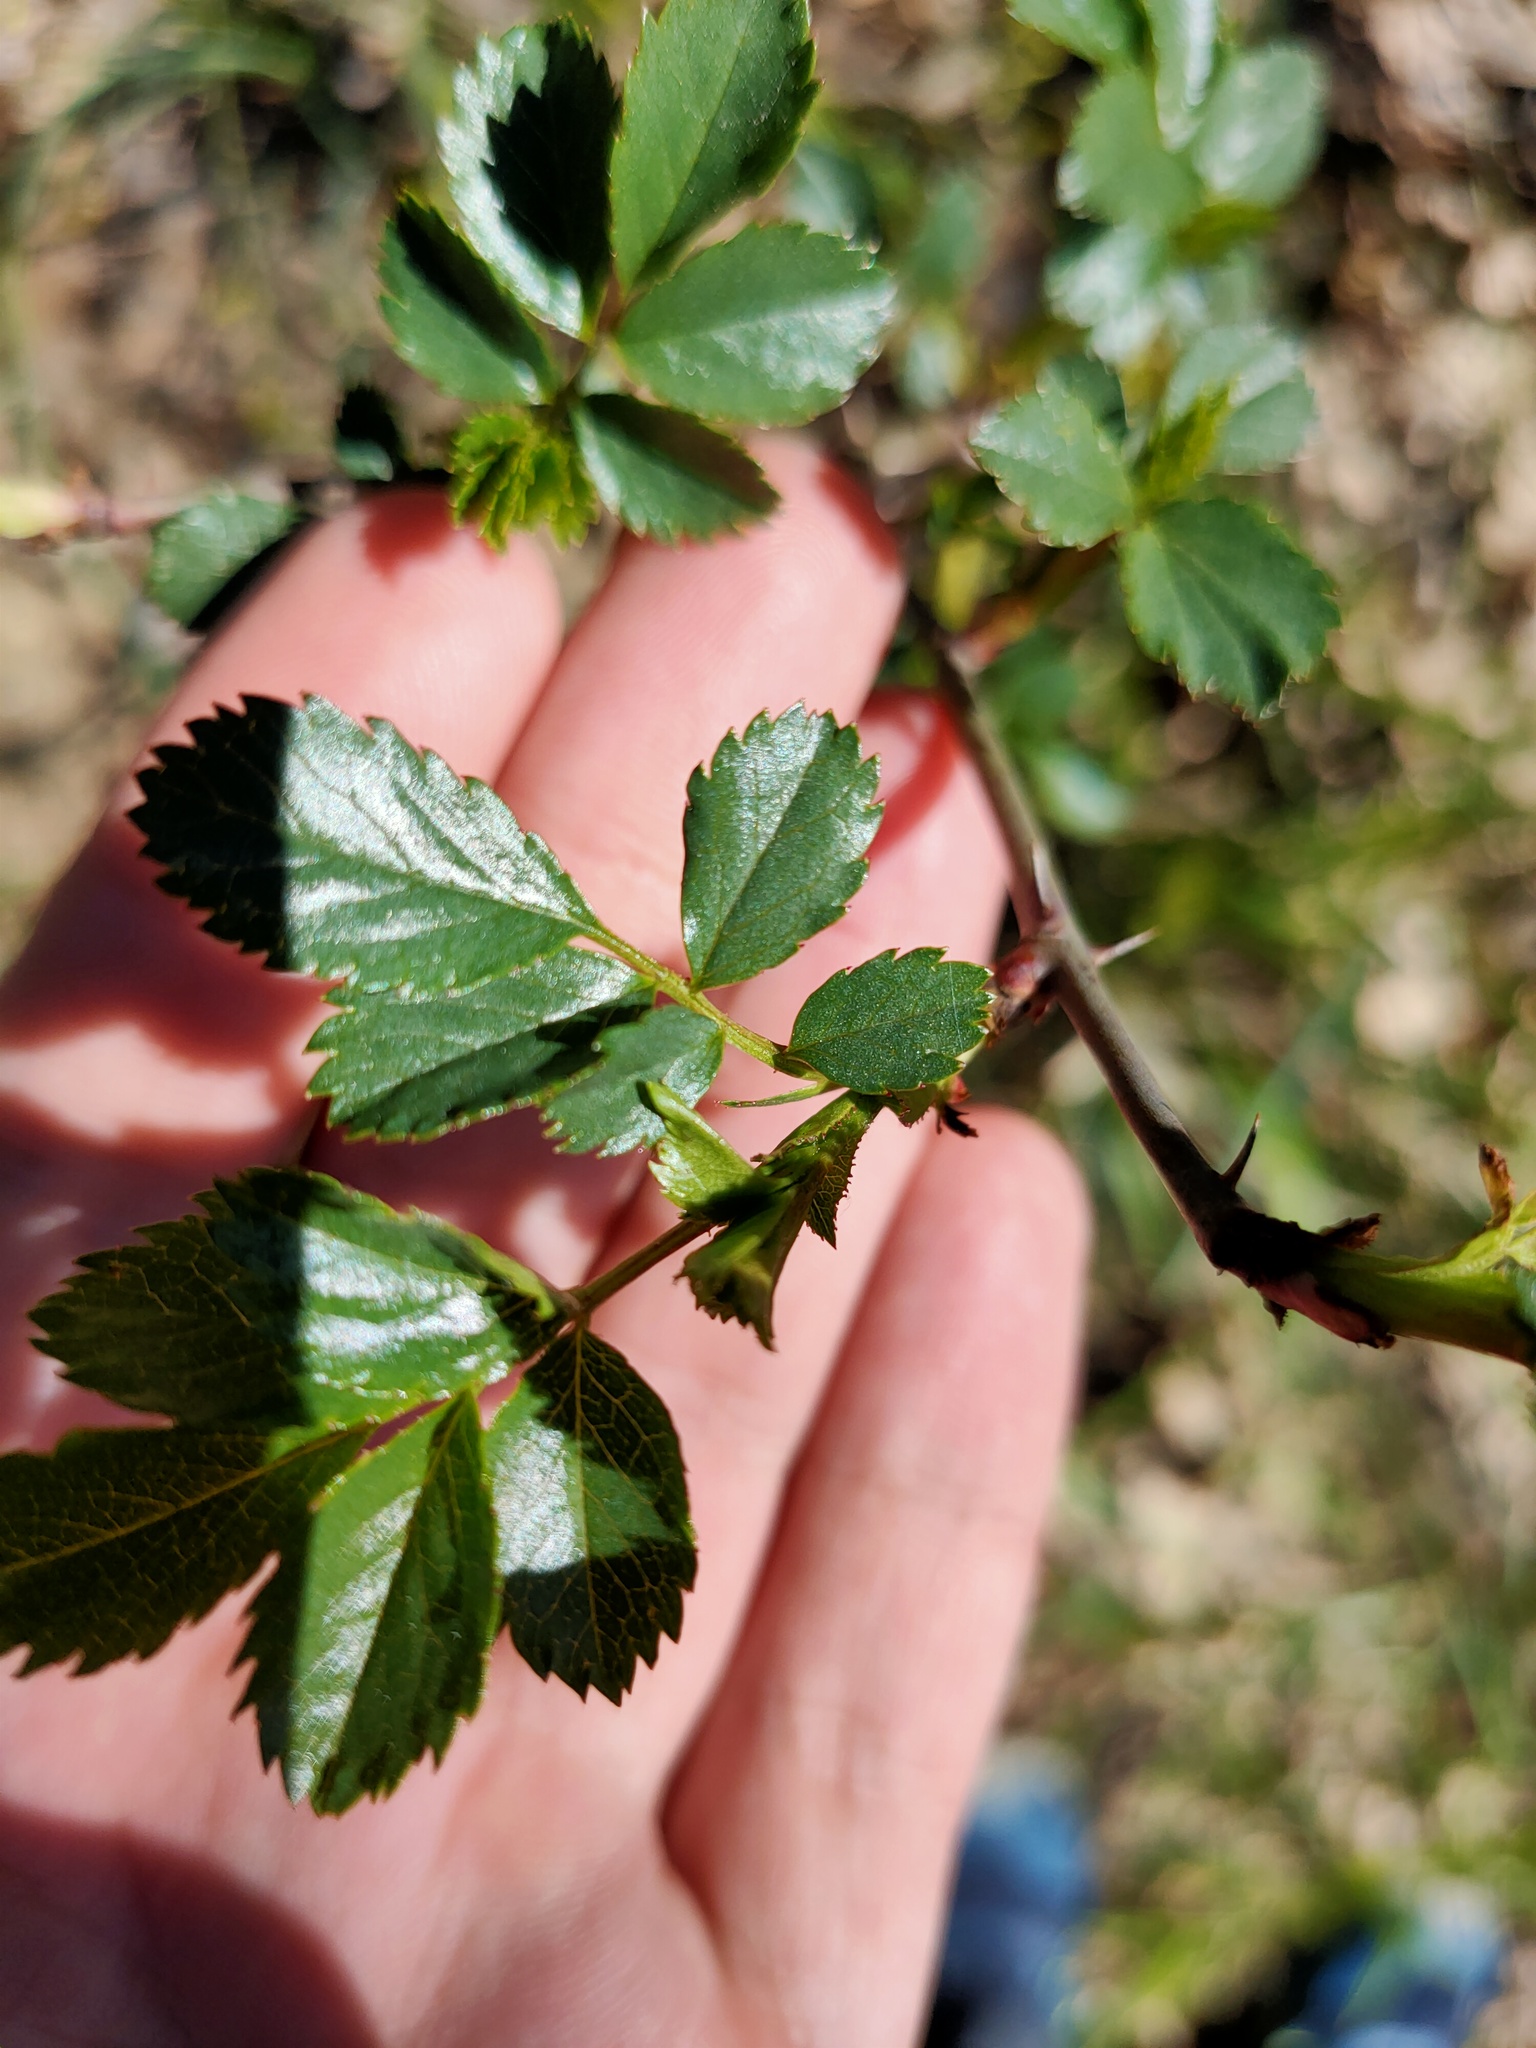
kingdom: Plantae
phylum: Tracheophyta
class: Magnoliopsida
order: Rosales
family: Rosaceae
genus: Rosa
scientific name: Rosa
